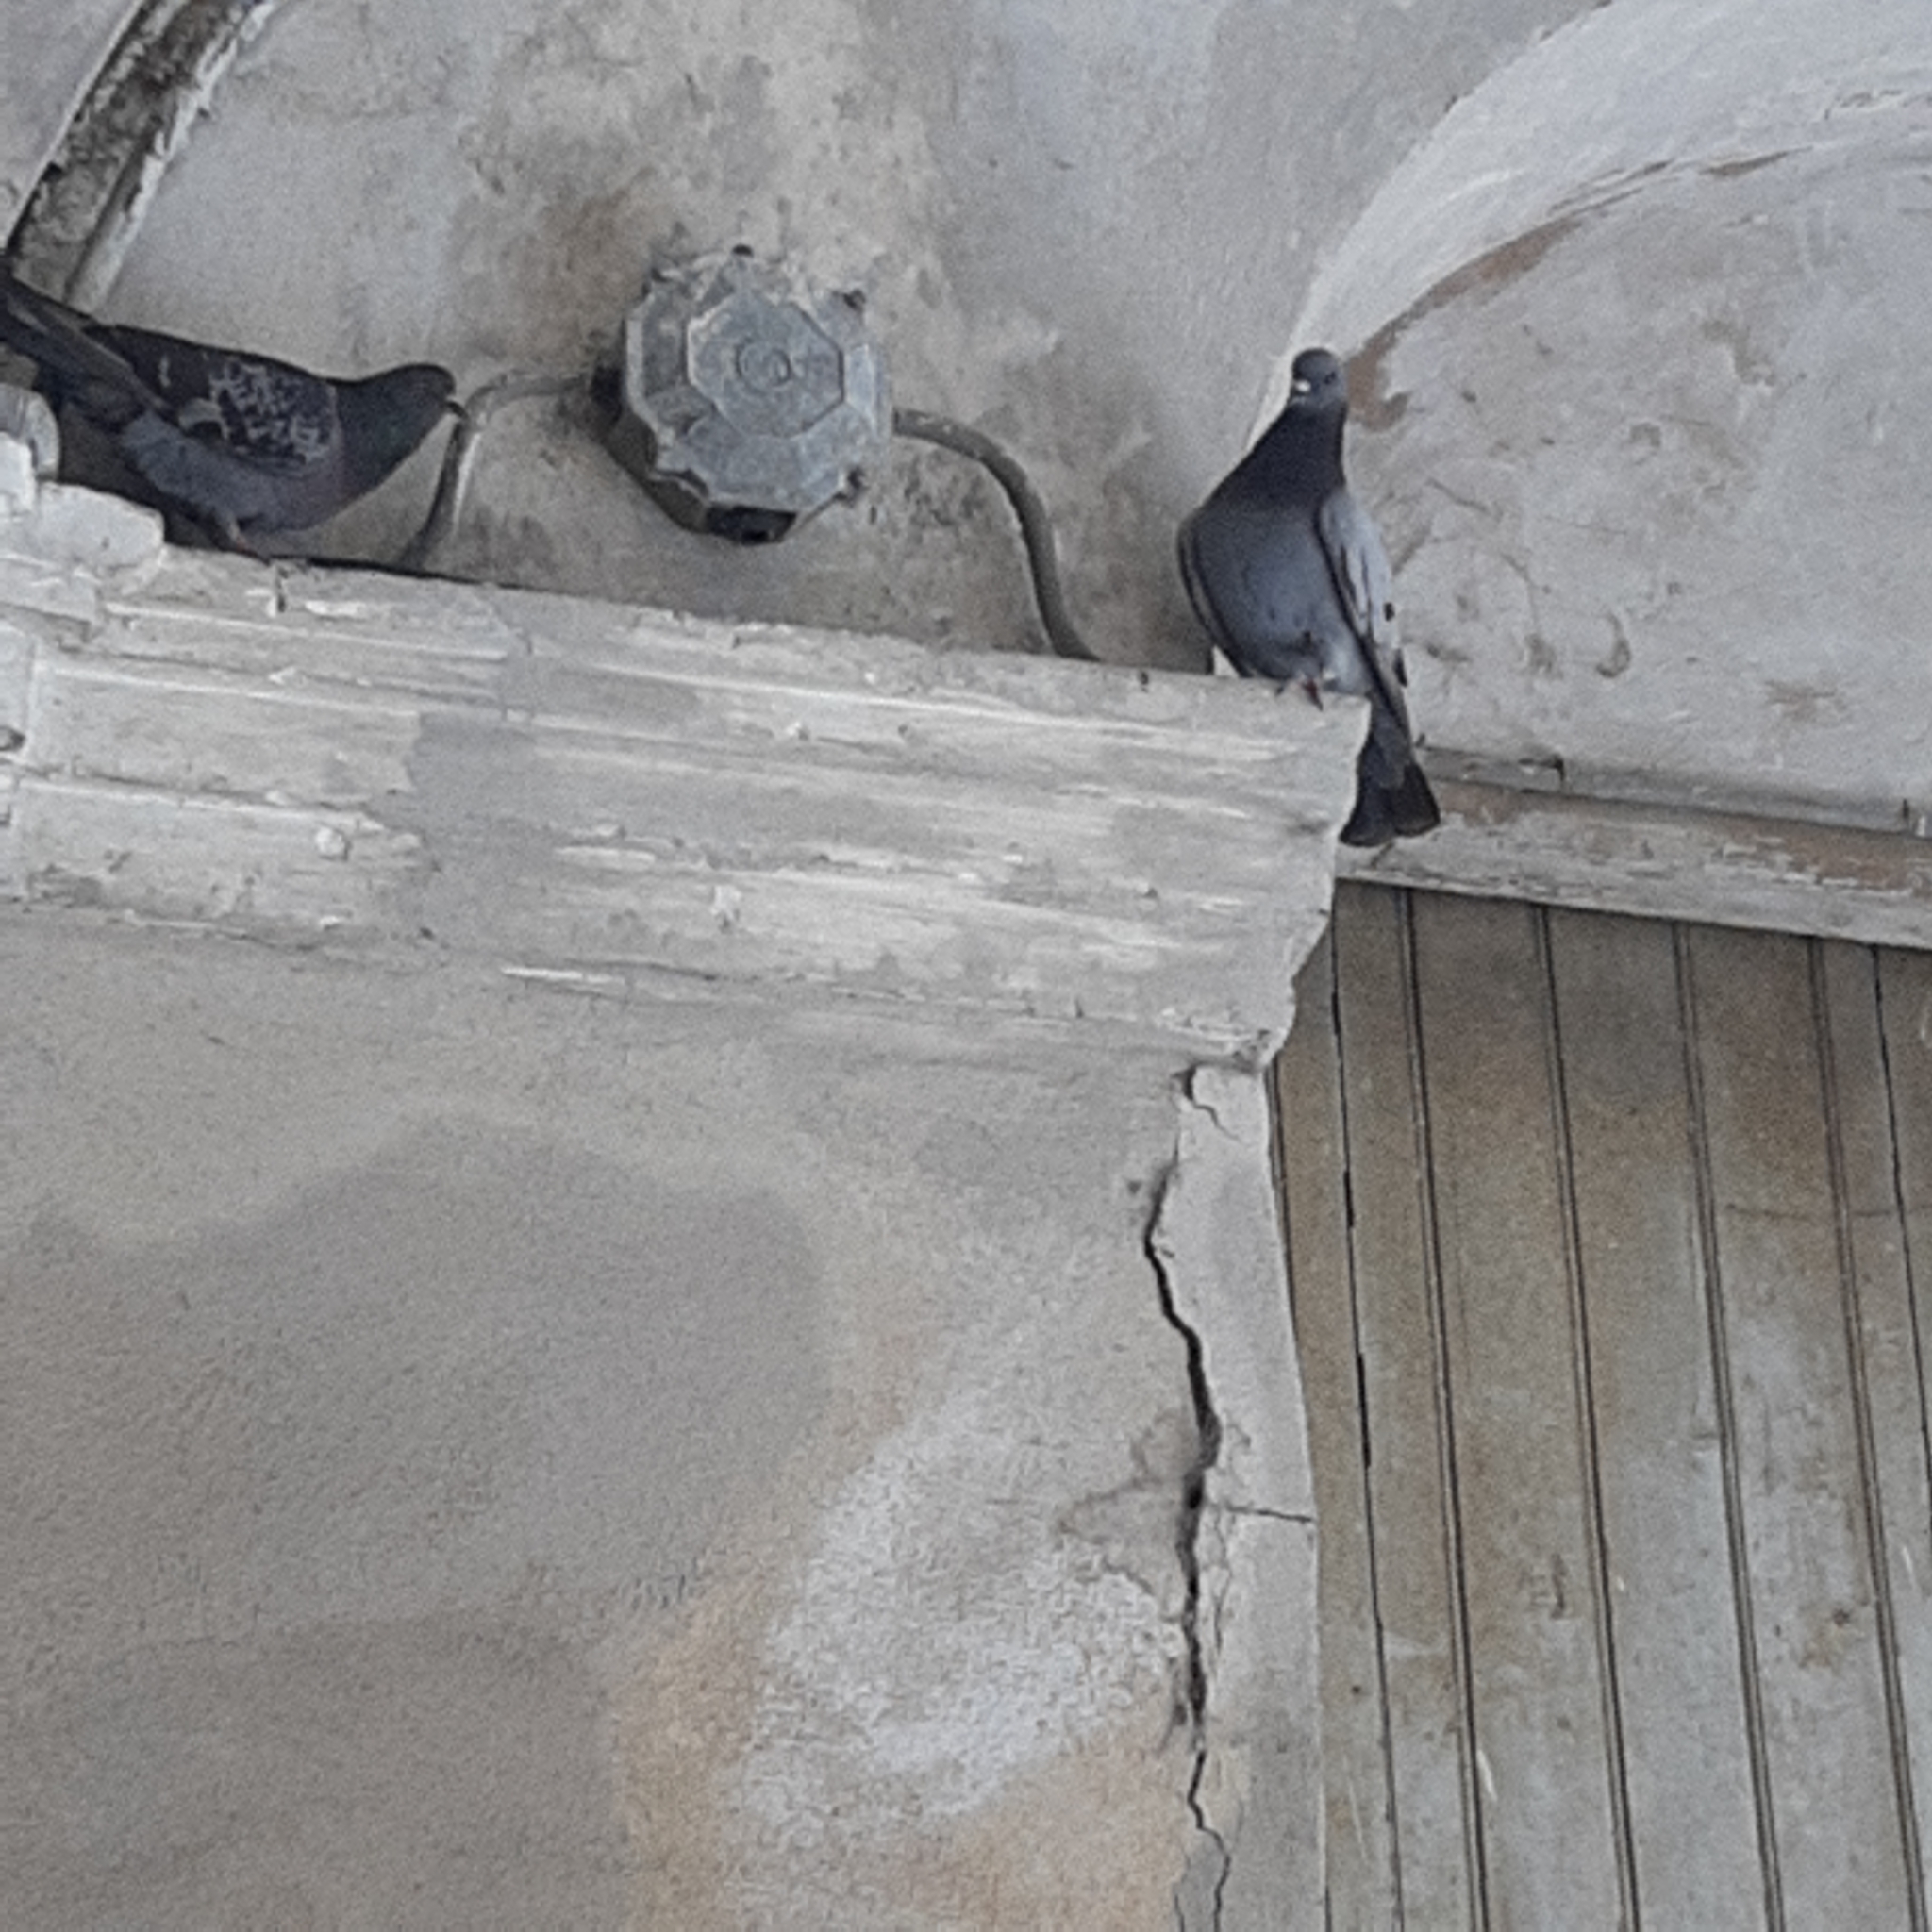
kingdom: Animalia
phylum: Chordata
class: Aves
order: Columbiformes
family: Columbidae
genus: Columba
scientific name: Columba livia
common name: Rock pigeon
